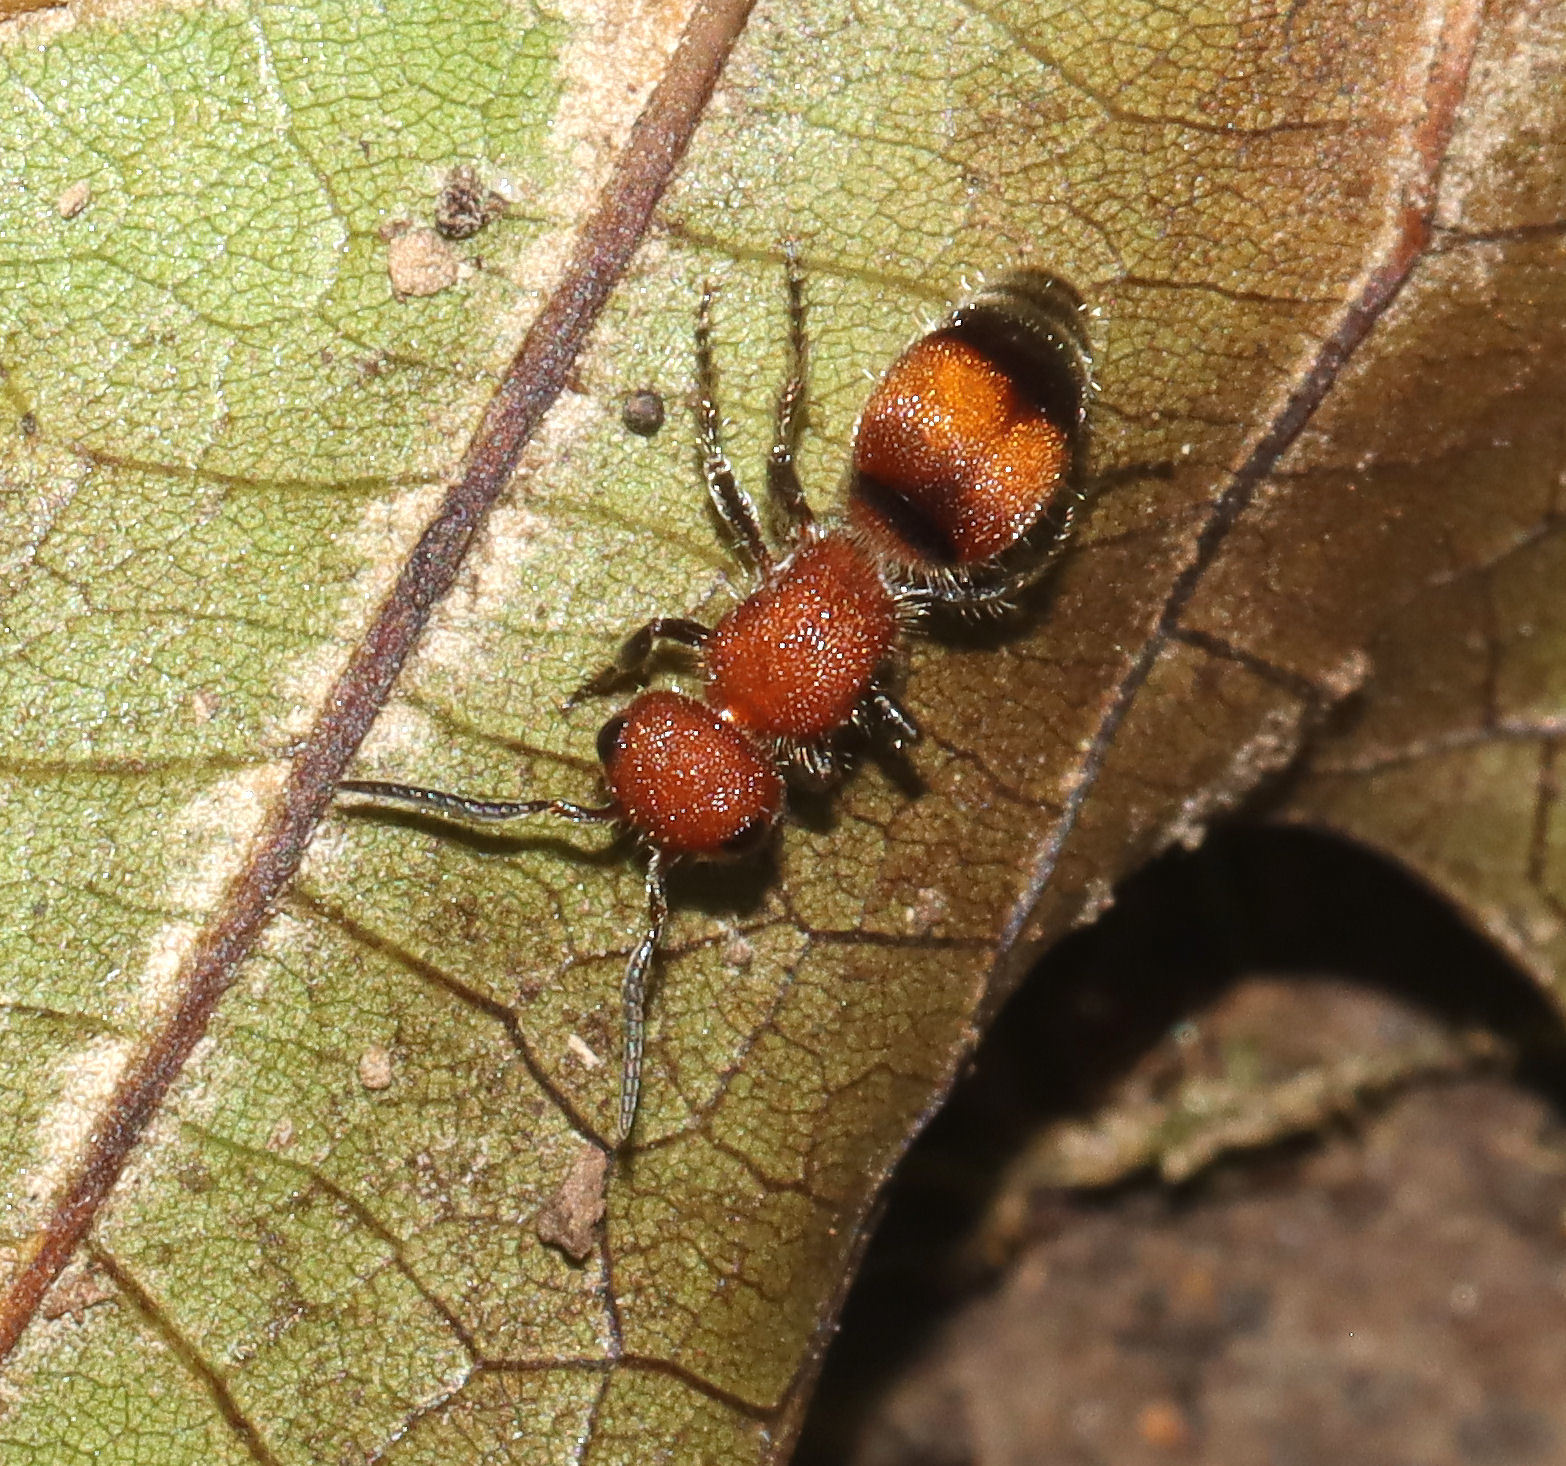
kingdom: Animalia
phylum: Arthropoda
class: Insecta
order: Hymenoptera
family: Mutillidae
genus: Pseudomethoca
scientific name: Pseudomethoca
